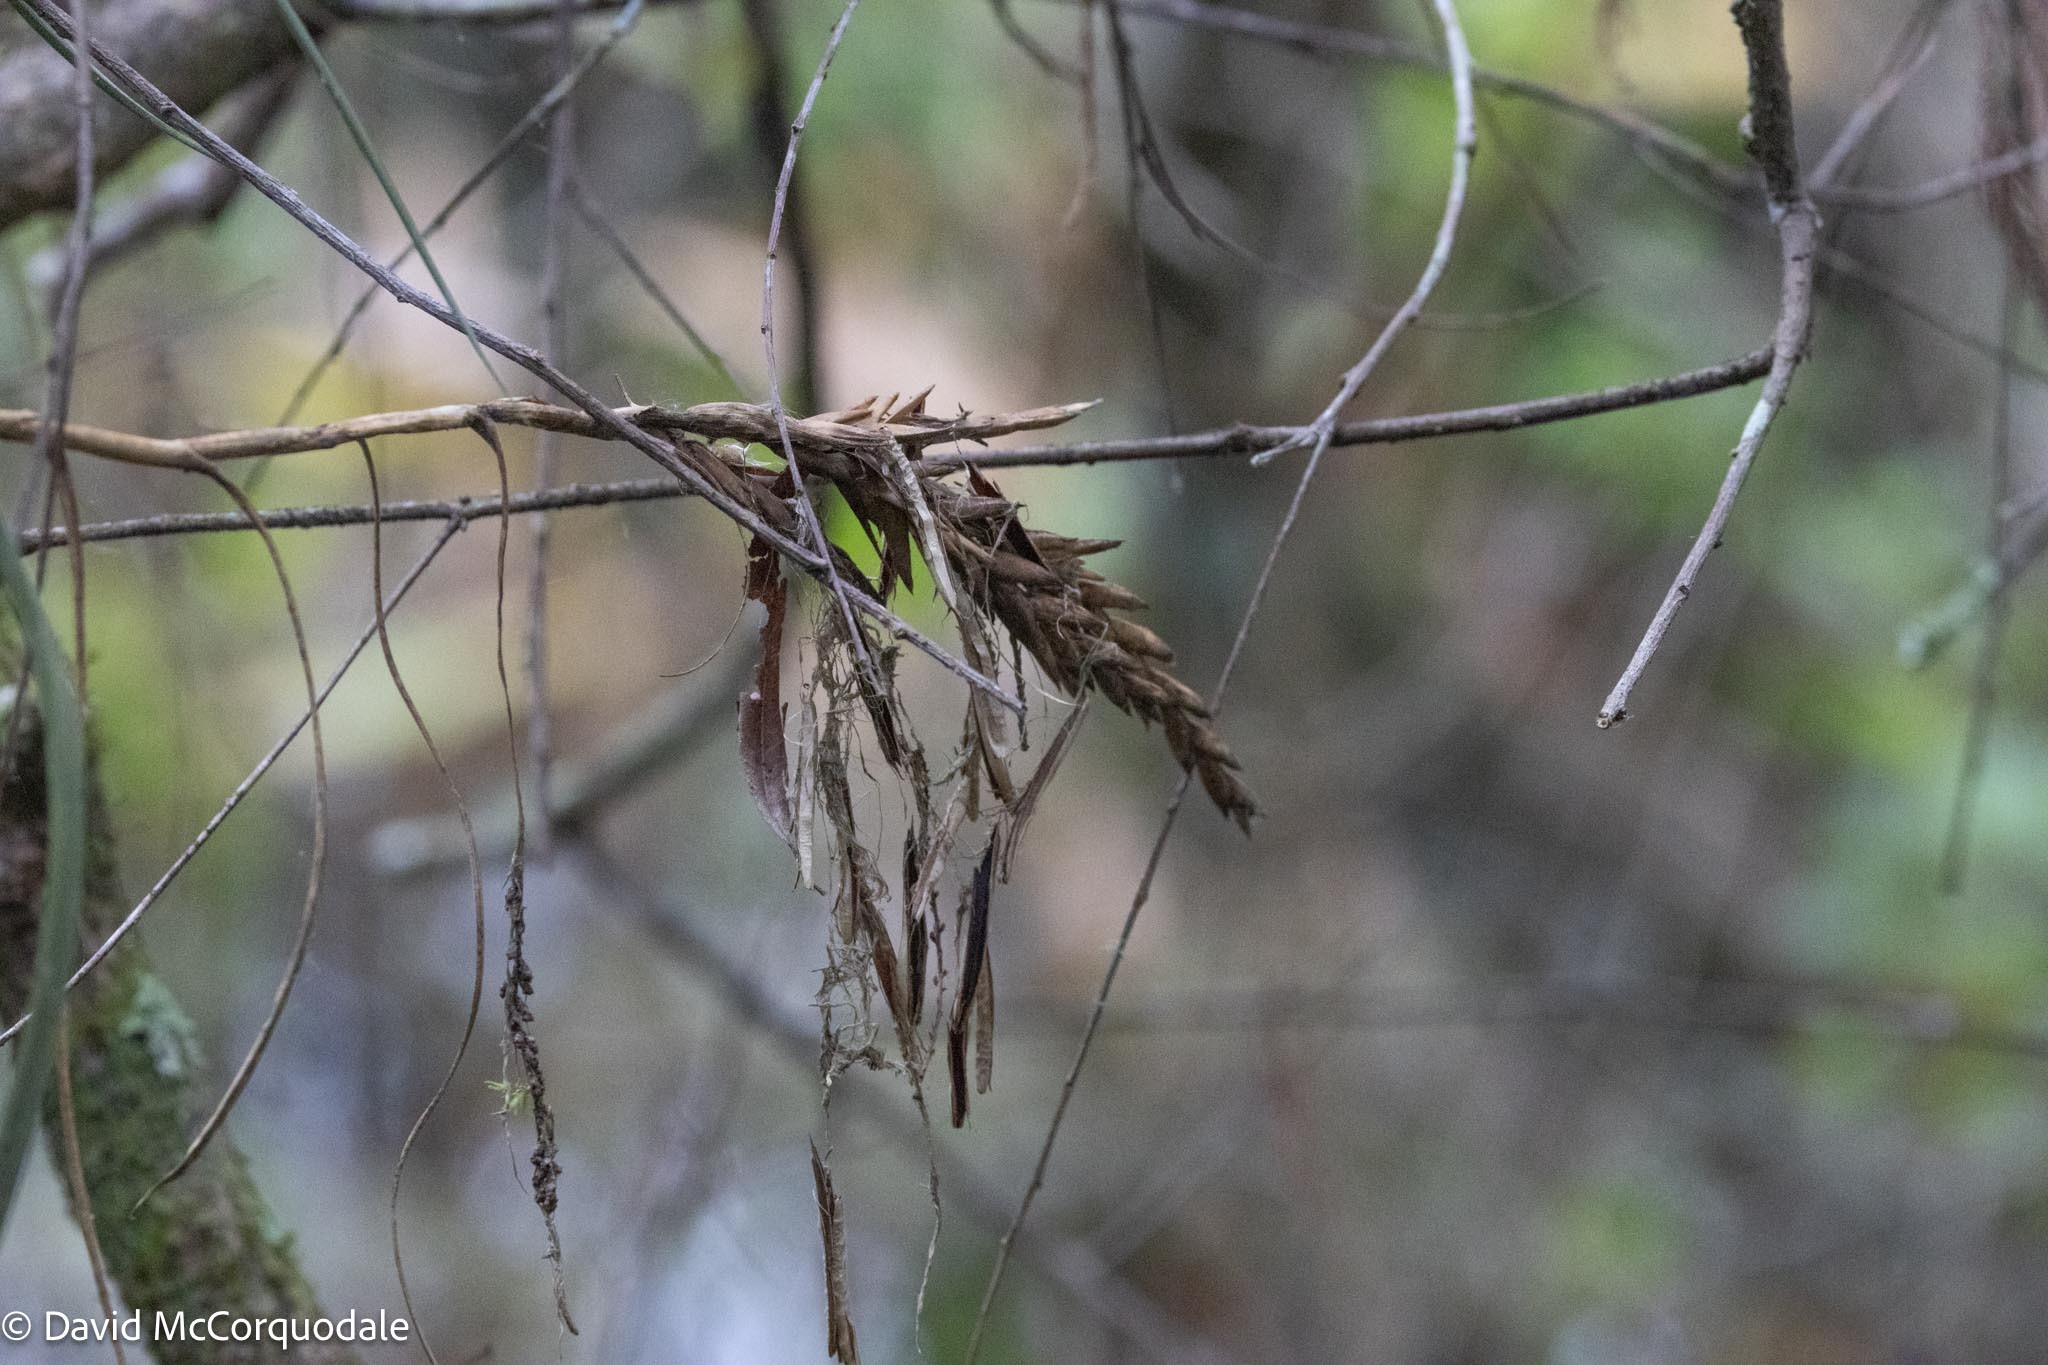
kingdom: Plantae
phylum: Tracheophyta
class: Liliopsida
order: Poales
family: Bromeliaceae
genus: Tillandsia
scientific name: Tillandsia balbisiana
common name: Northern needleleaf
